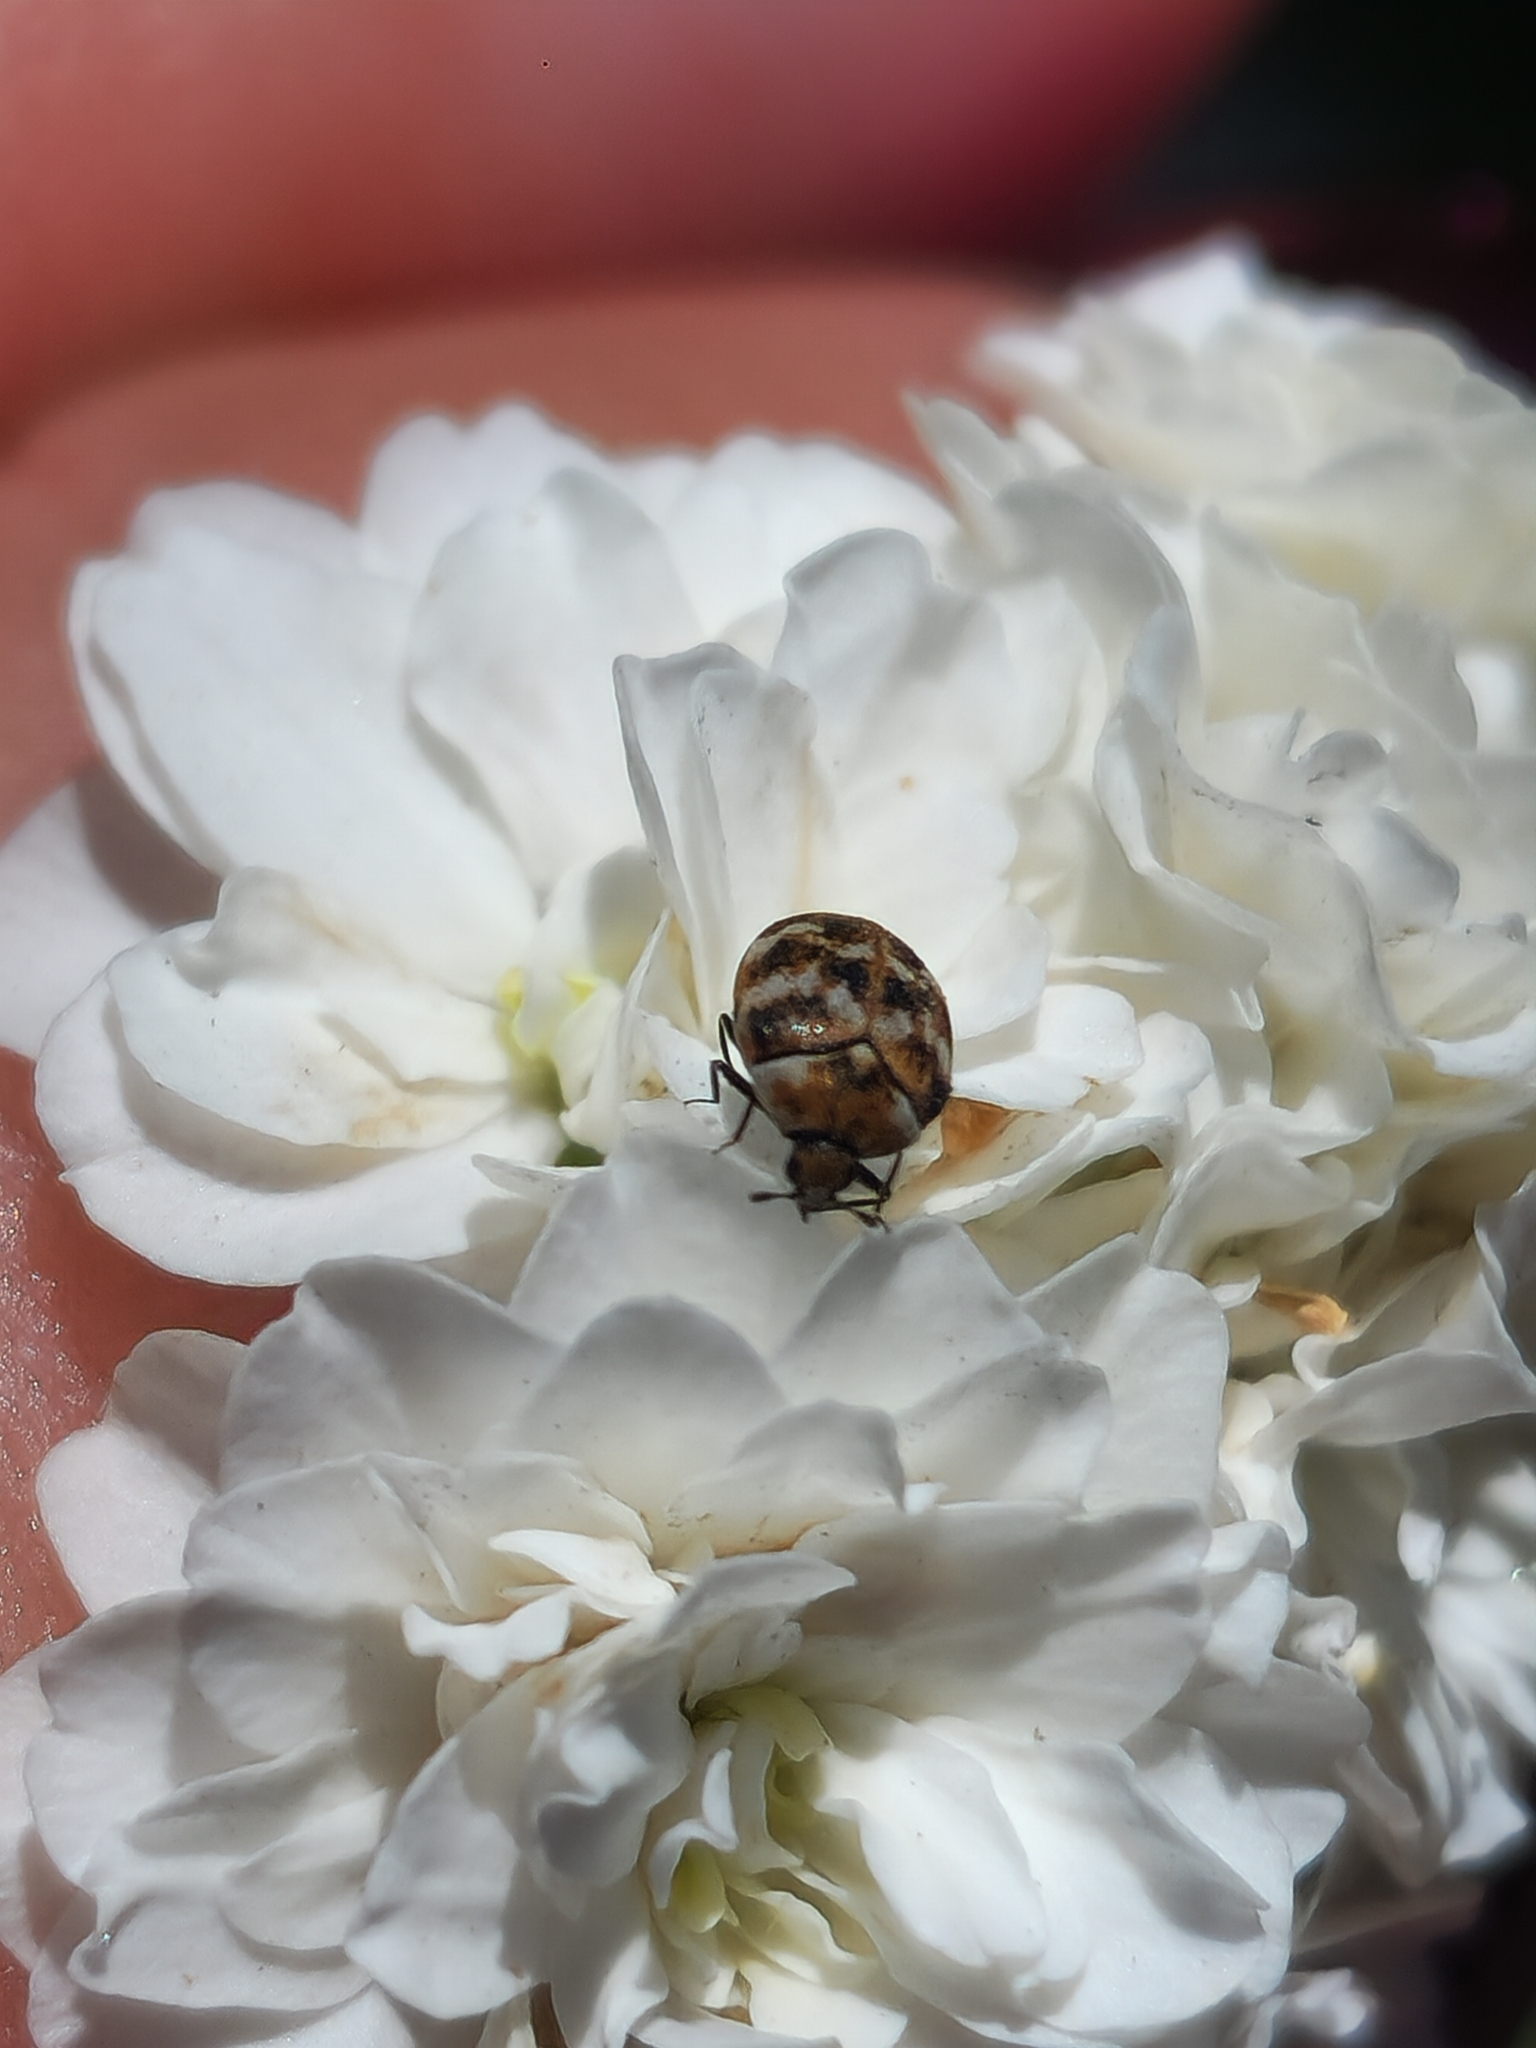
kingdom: Animalia
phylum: Arthropoda
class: Insecta
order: Coleoptera
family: Dermestidae
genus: Anthrenus
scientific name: Anthrenus verbasci
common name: Varied carpet beetle
